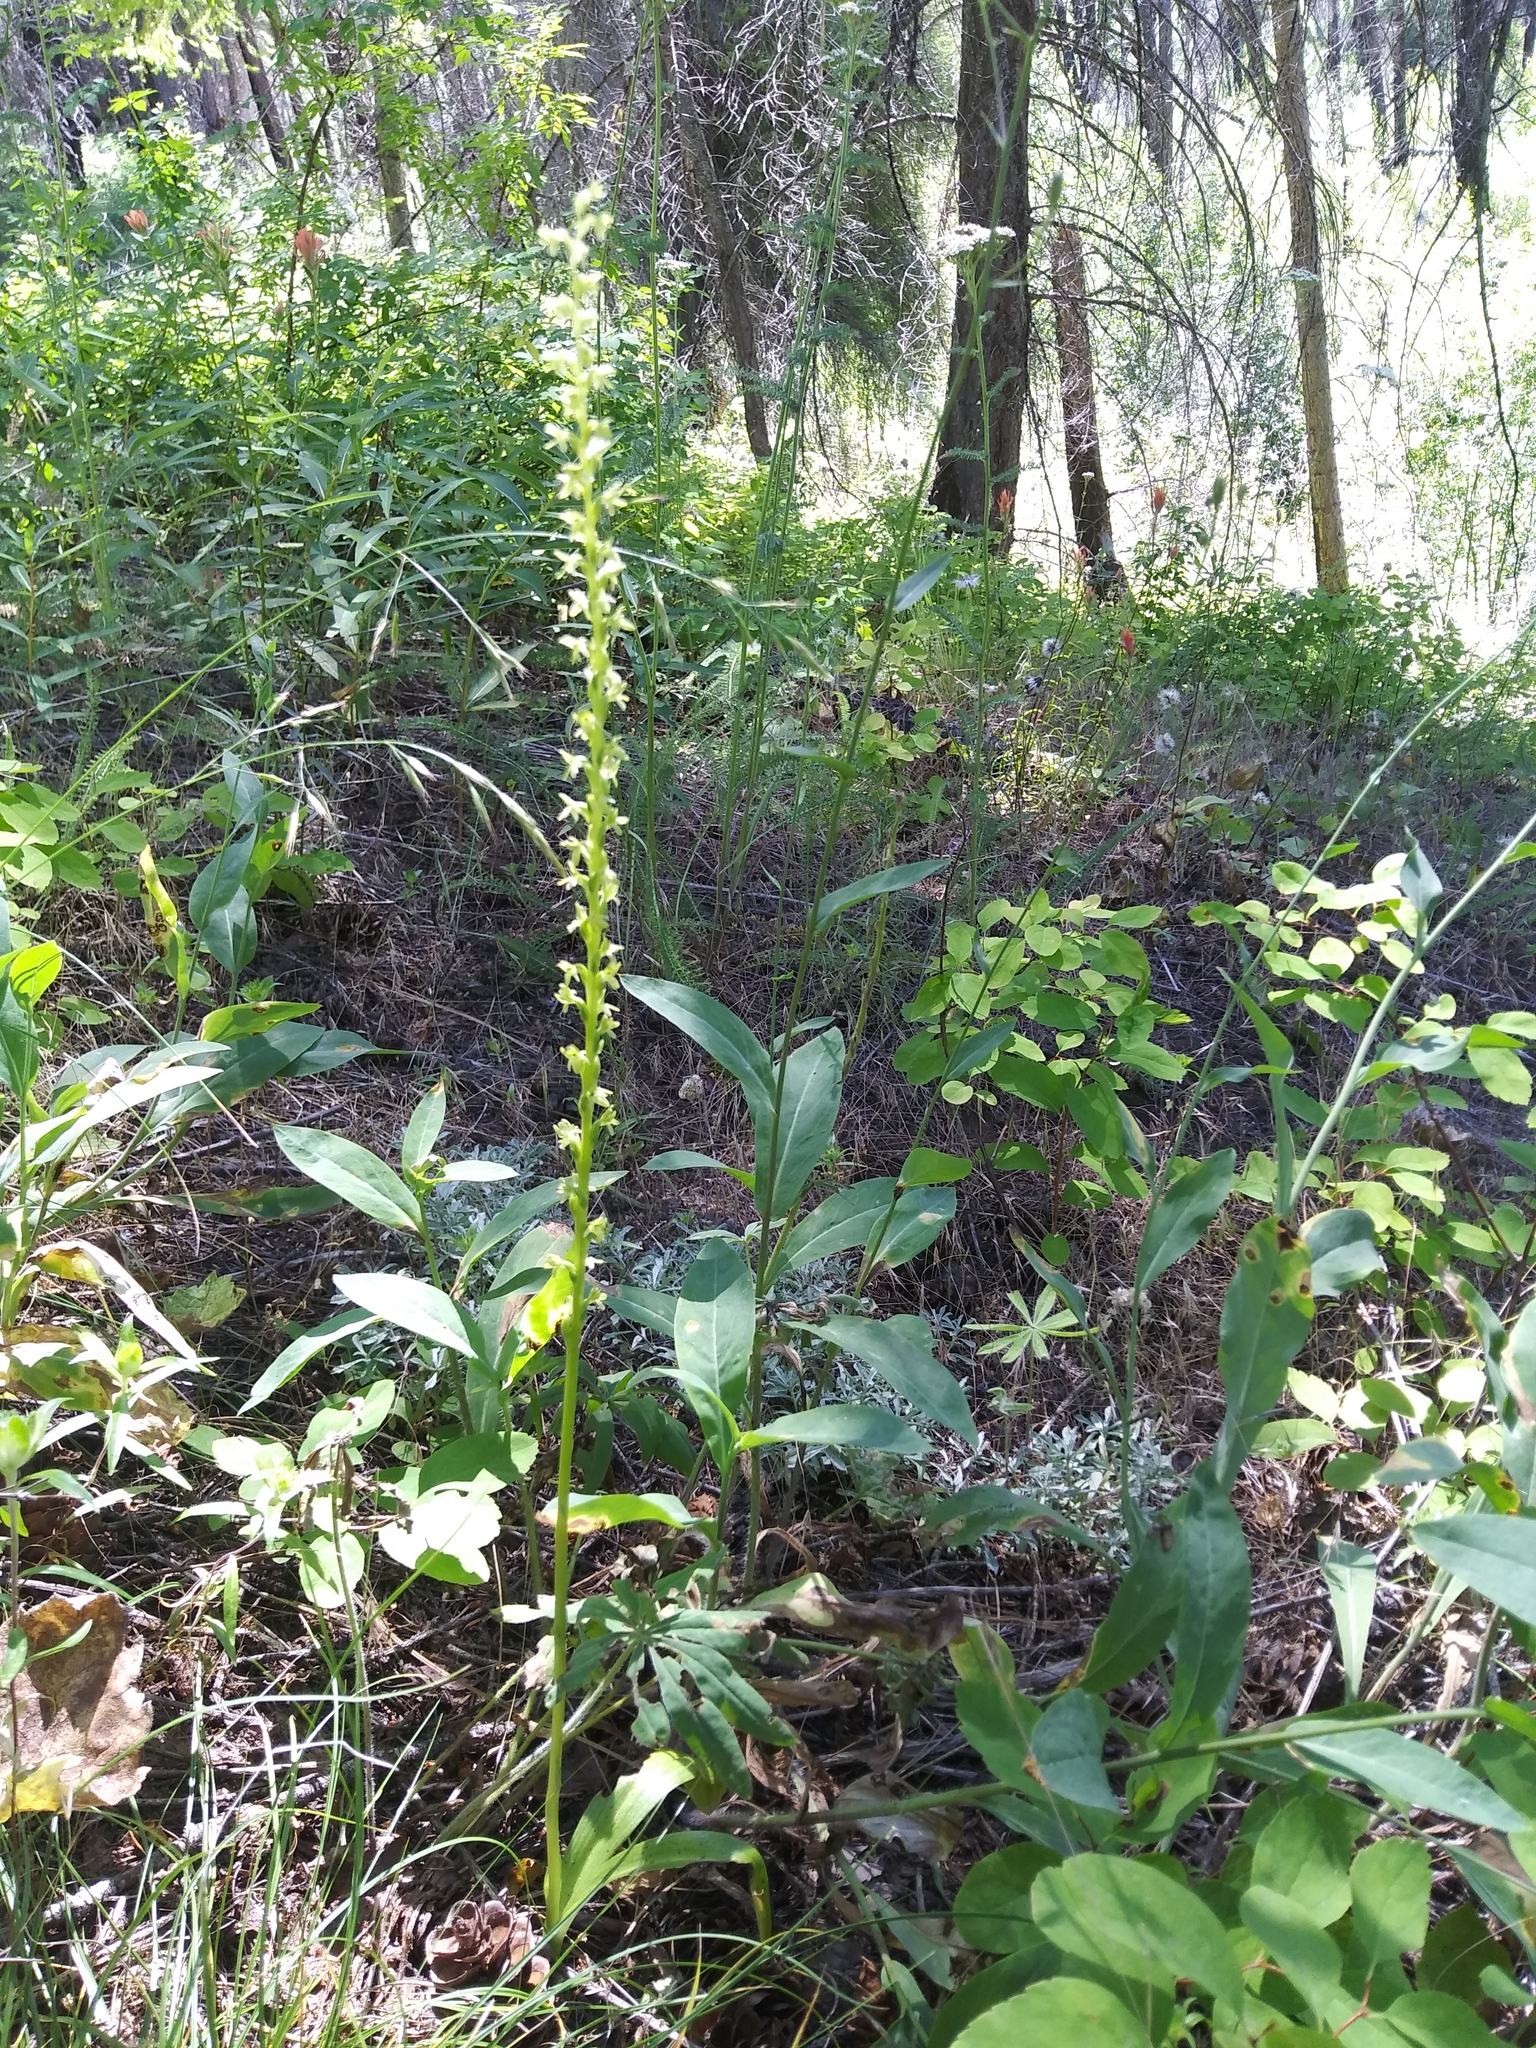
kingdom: Plantae
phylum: Tracheophyta
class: Liliopsida
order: Asparagales
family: Orchidaceae
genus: Platanthera
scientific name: Platanthera unalascensis
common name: Alaska bog orchid
